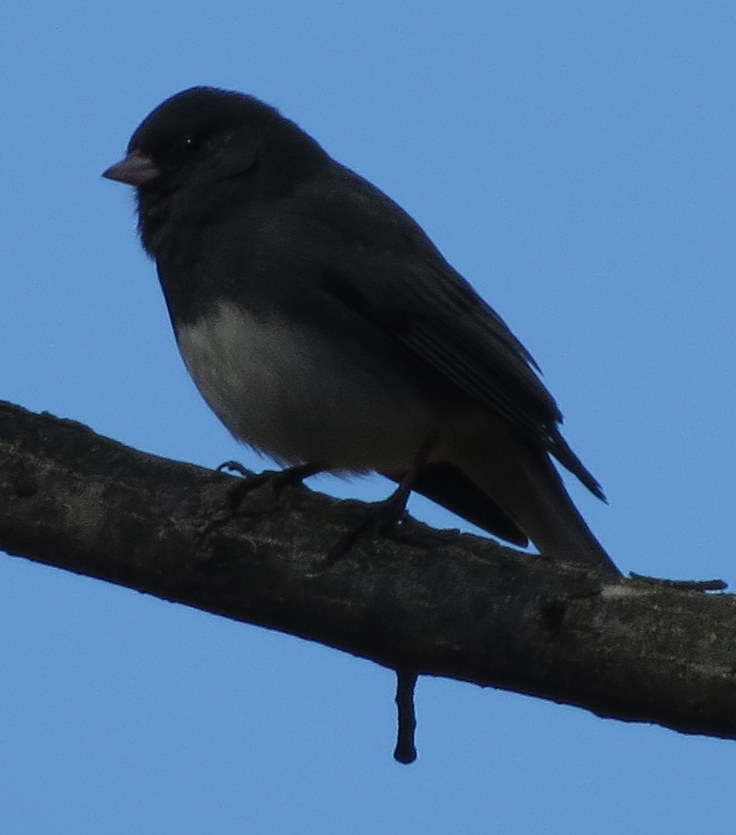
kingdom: Animalia
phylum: Chordata
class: Aves
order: Passeriformes
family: Passerellidae
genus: Junco
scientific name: Junco hyemalis
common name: Dark-eyed junco
